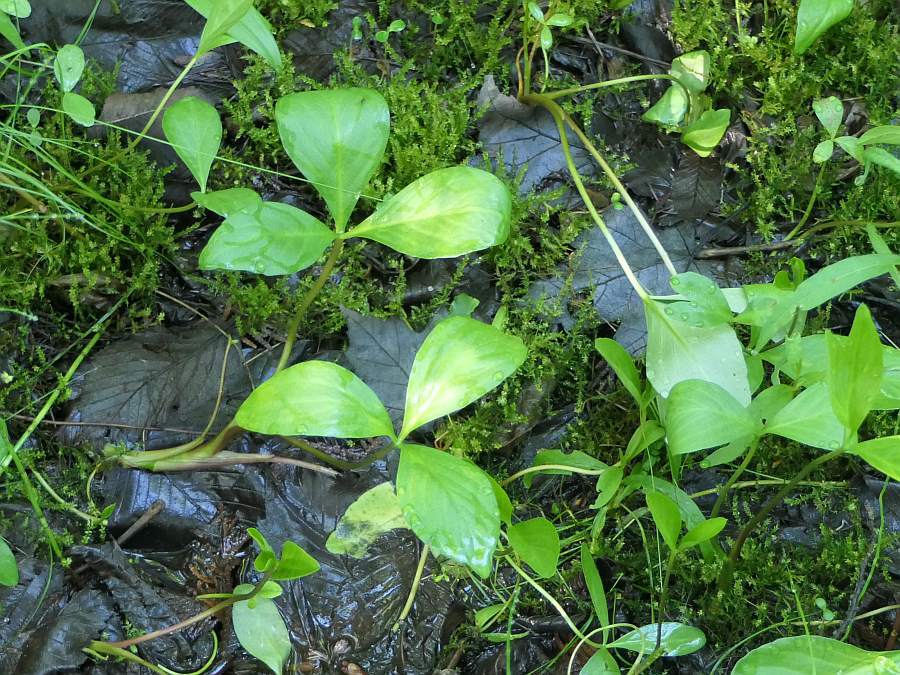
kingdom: Plantae
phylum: Tracheophyta
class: Magnoliopsida
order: Asterales
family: Menyanthaceae
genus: Menyanthes
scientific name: Menyanthes trifoliata
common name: Bogbean
